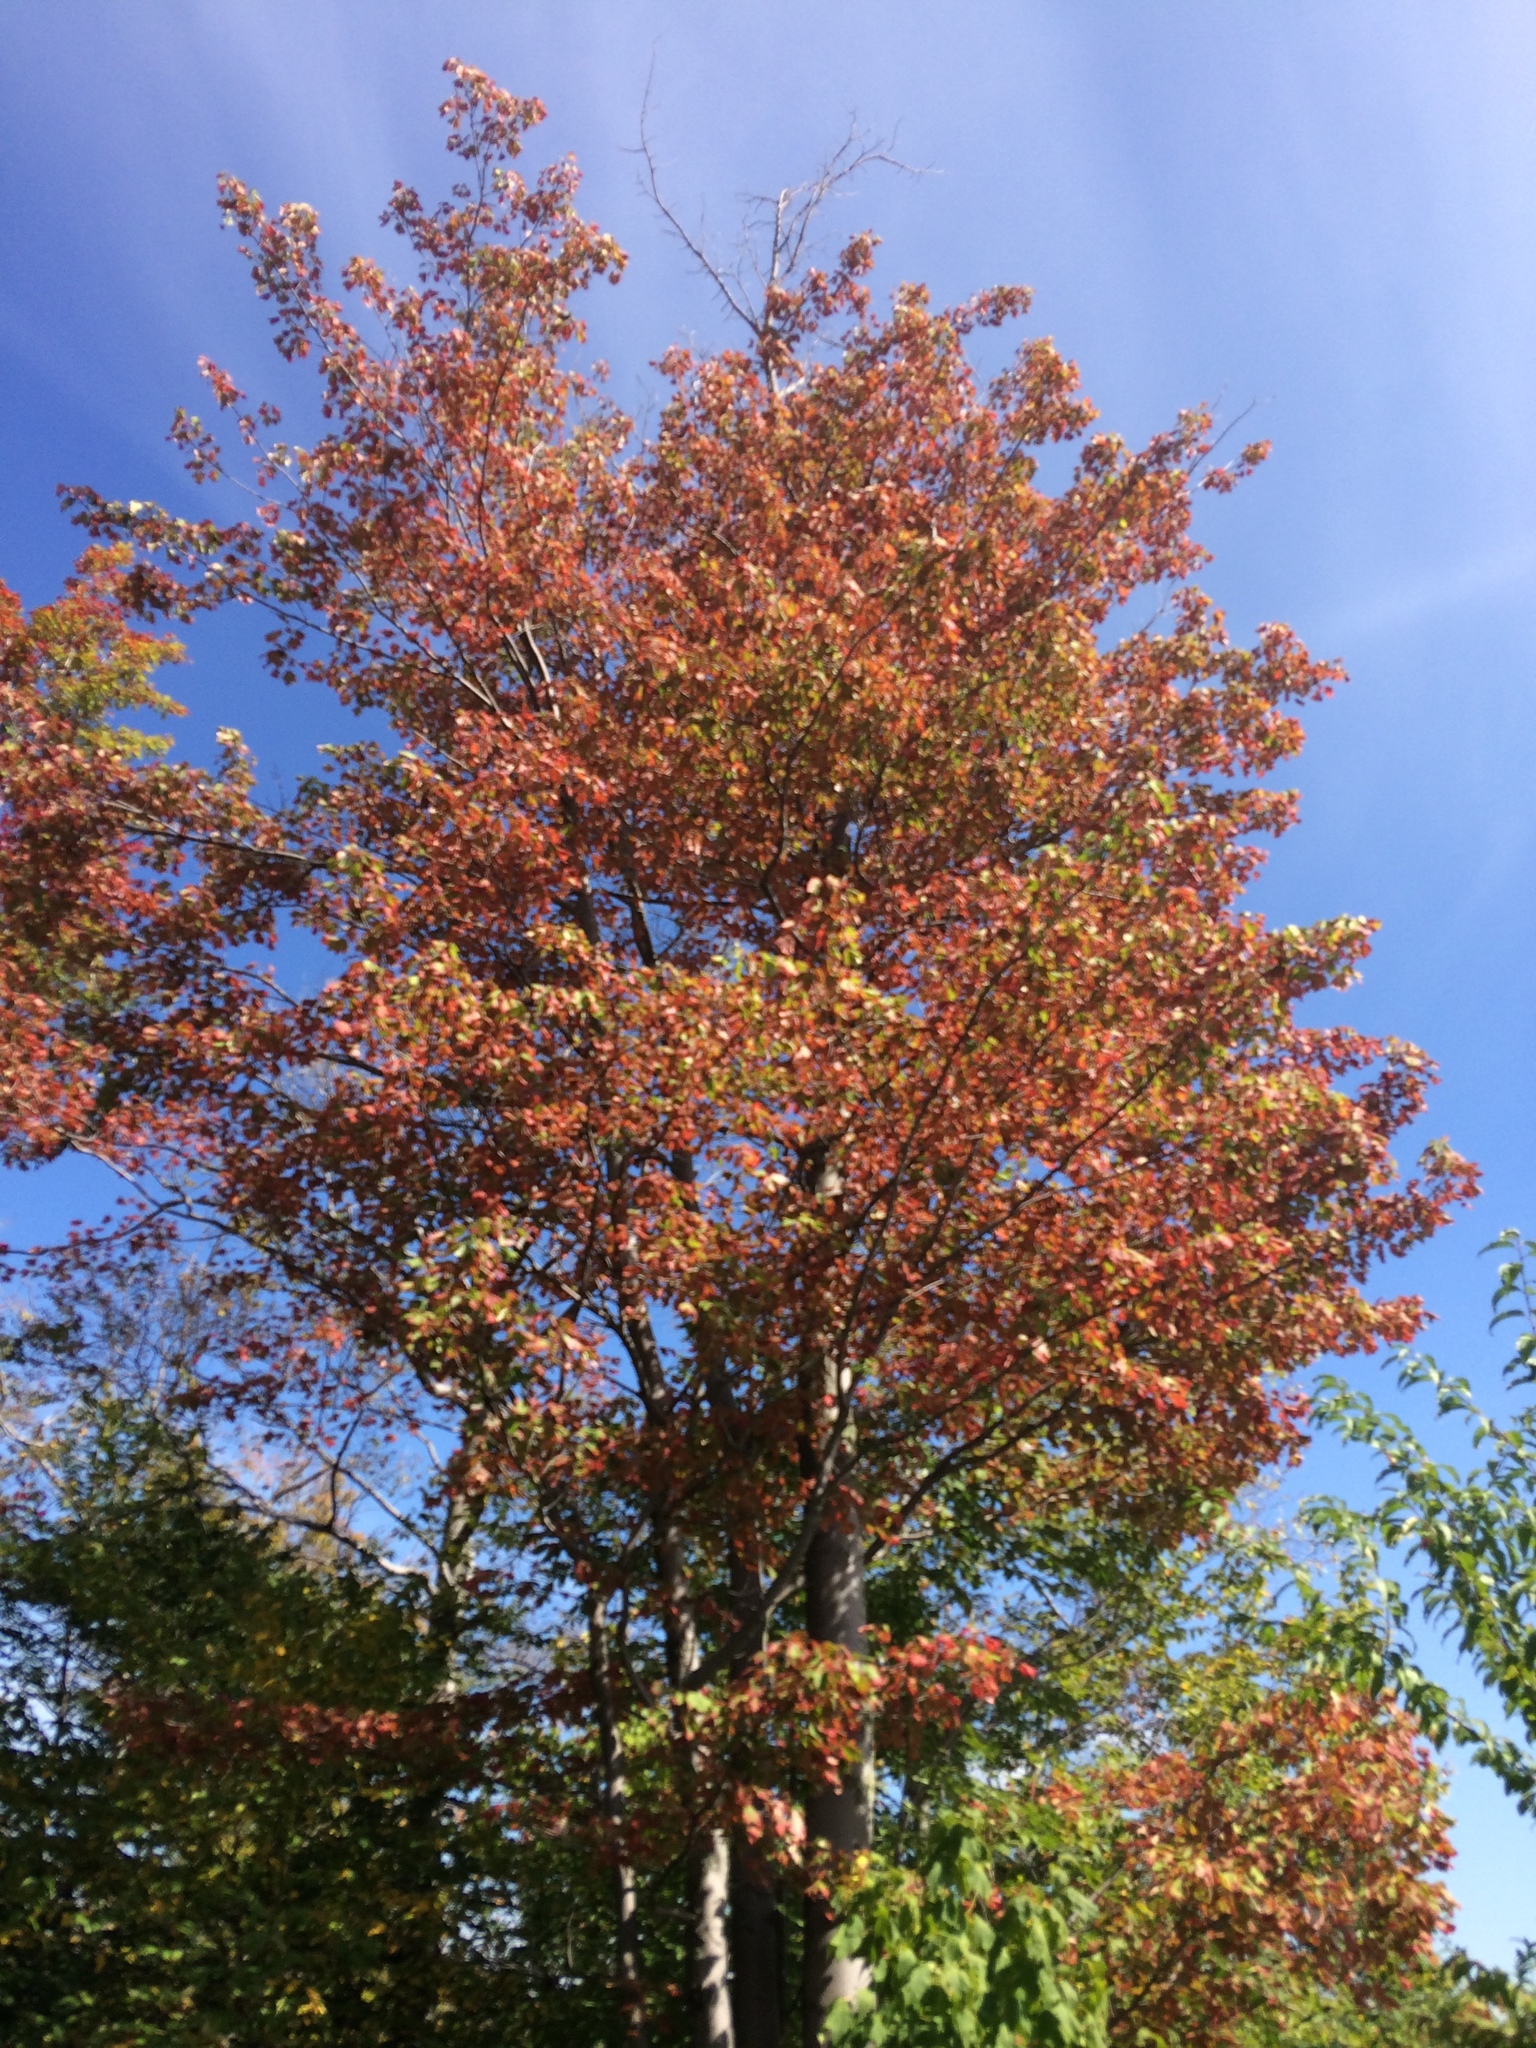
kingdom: Plantae
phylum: Tracheophyta
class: Magnoliopsida
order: Sapindales
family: Sapindaceae
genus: Acer
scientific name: Acer rubrum
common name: Red maple
